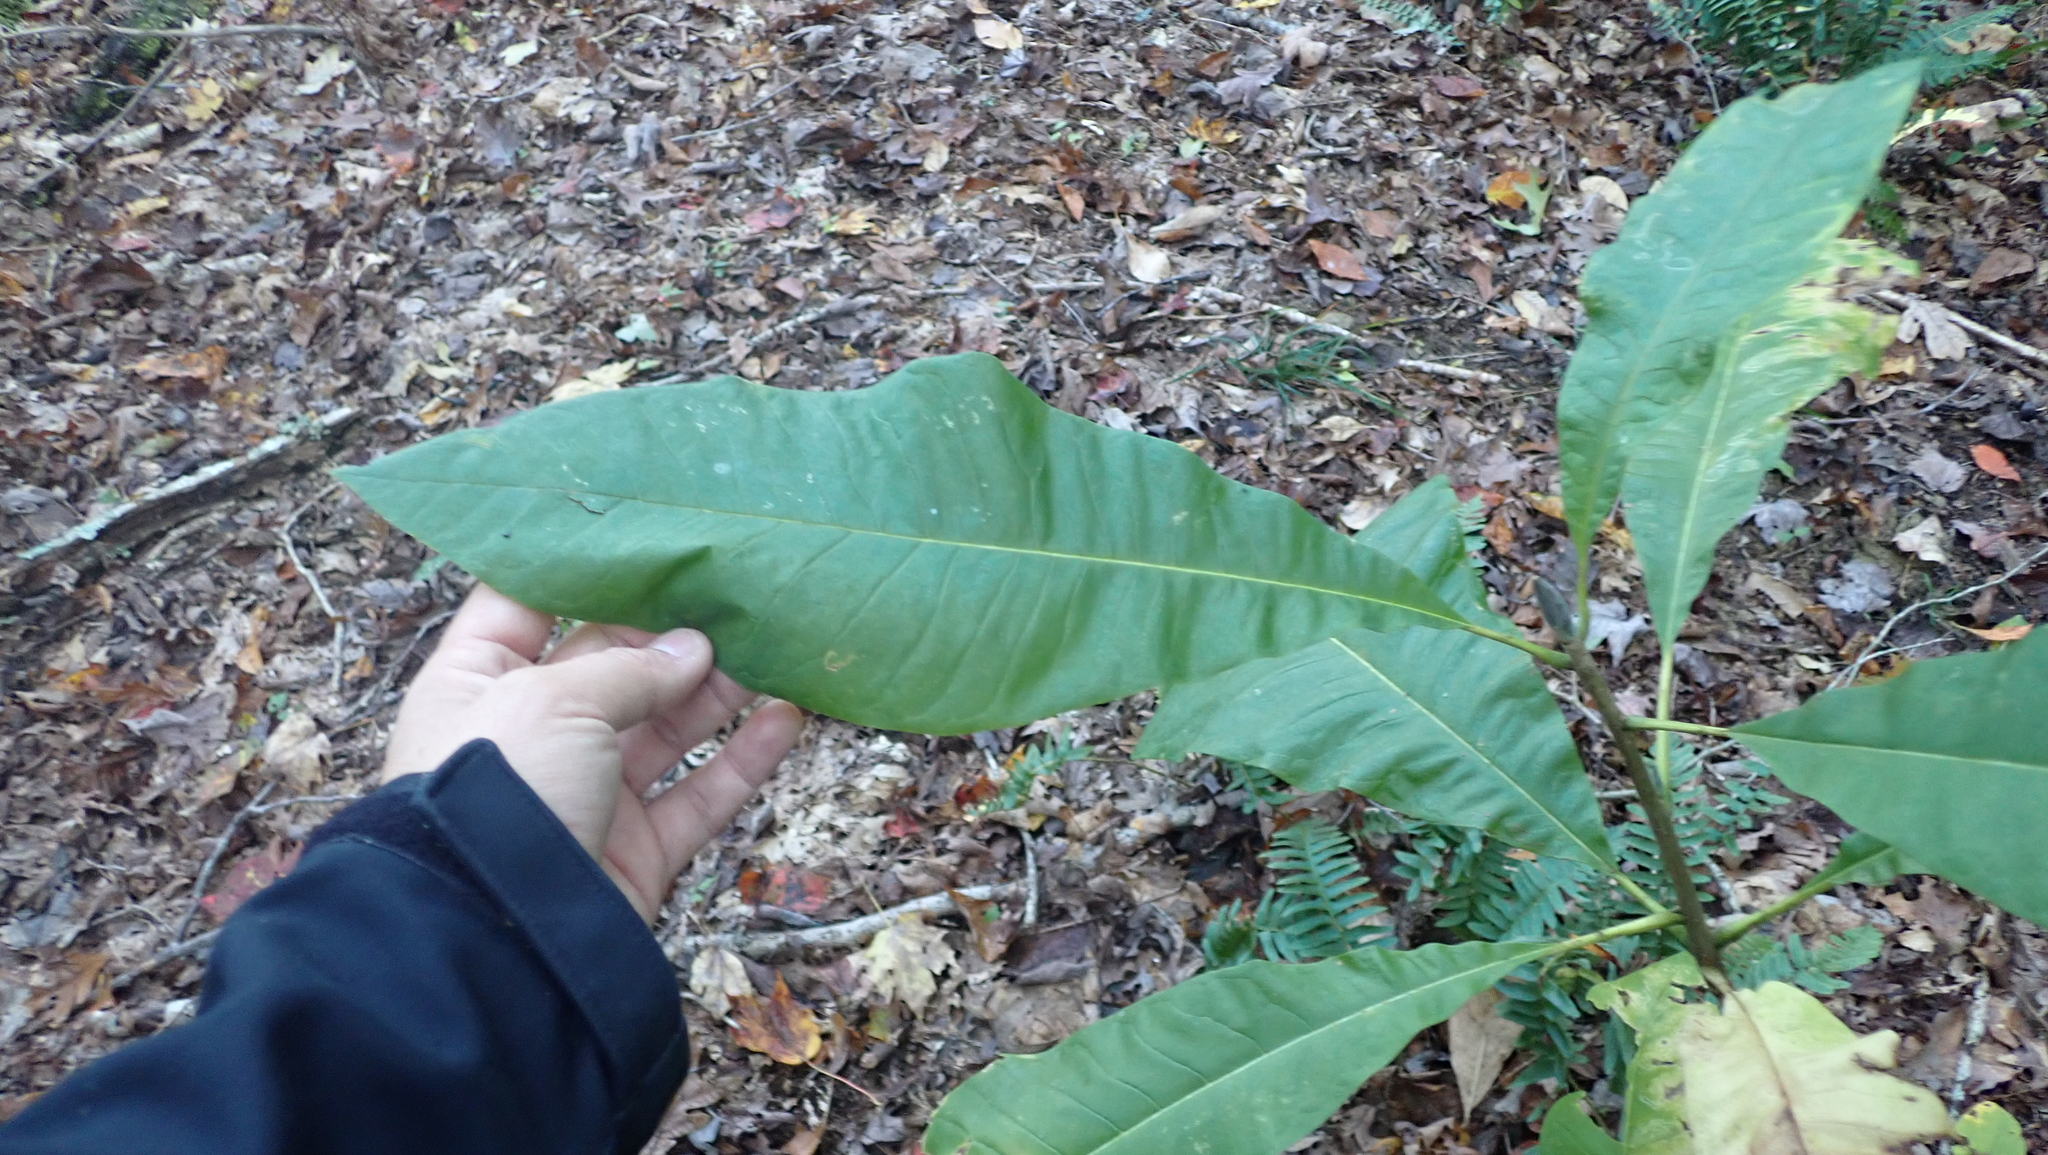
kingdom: Plantae
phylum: Tracheophyta
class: Magnoliopsida
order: Magnoliales
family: Magnoliaceae
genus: Magnolia
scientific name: Magnolia tripetala
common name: Umbrella magnolia
